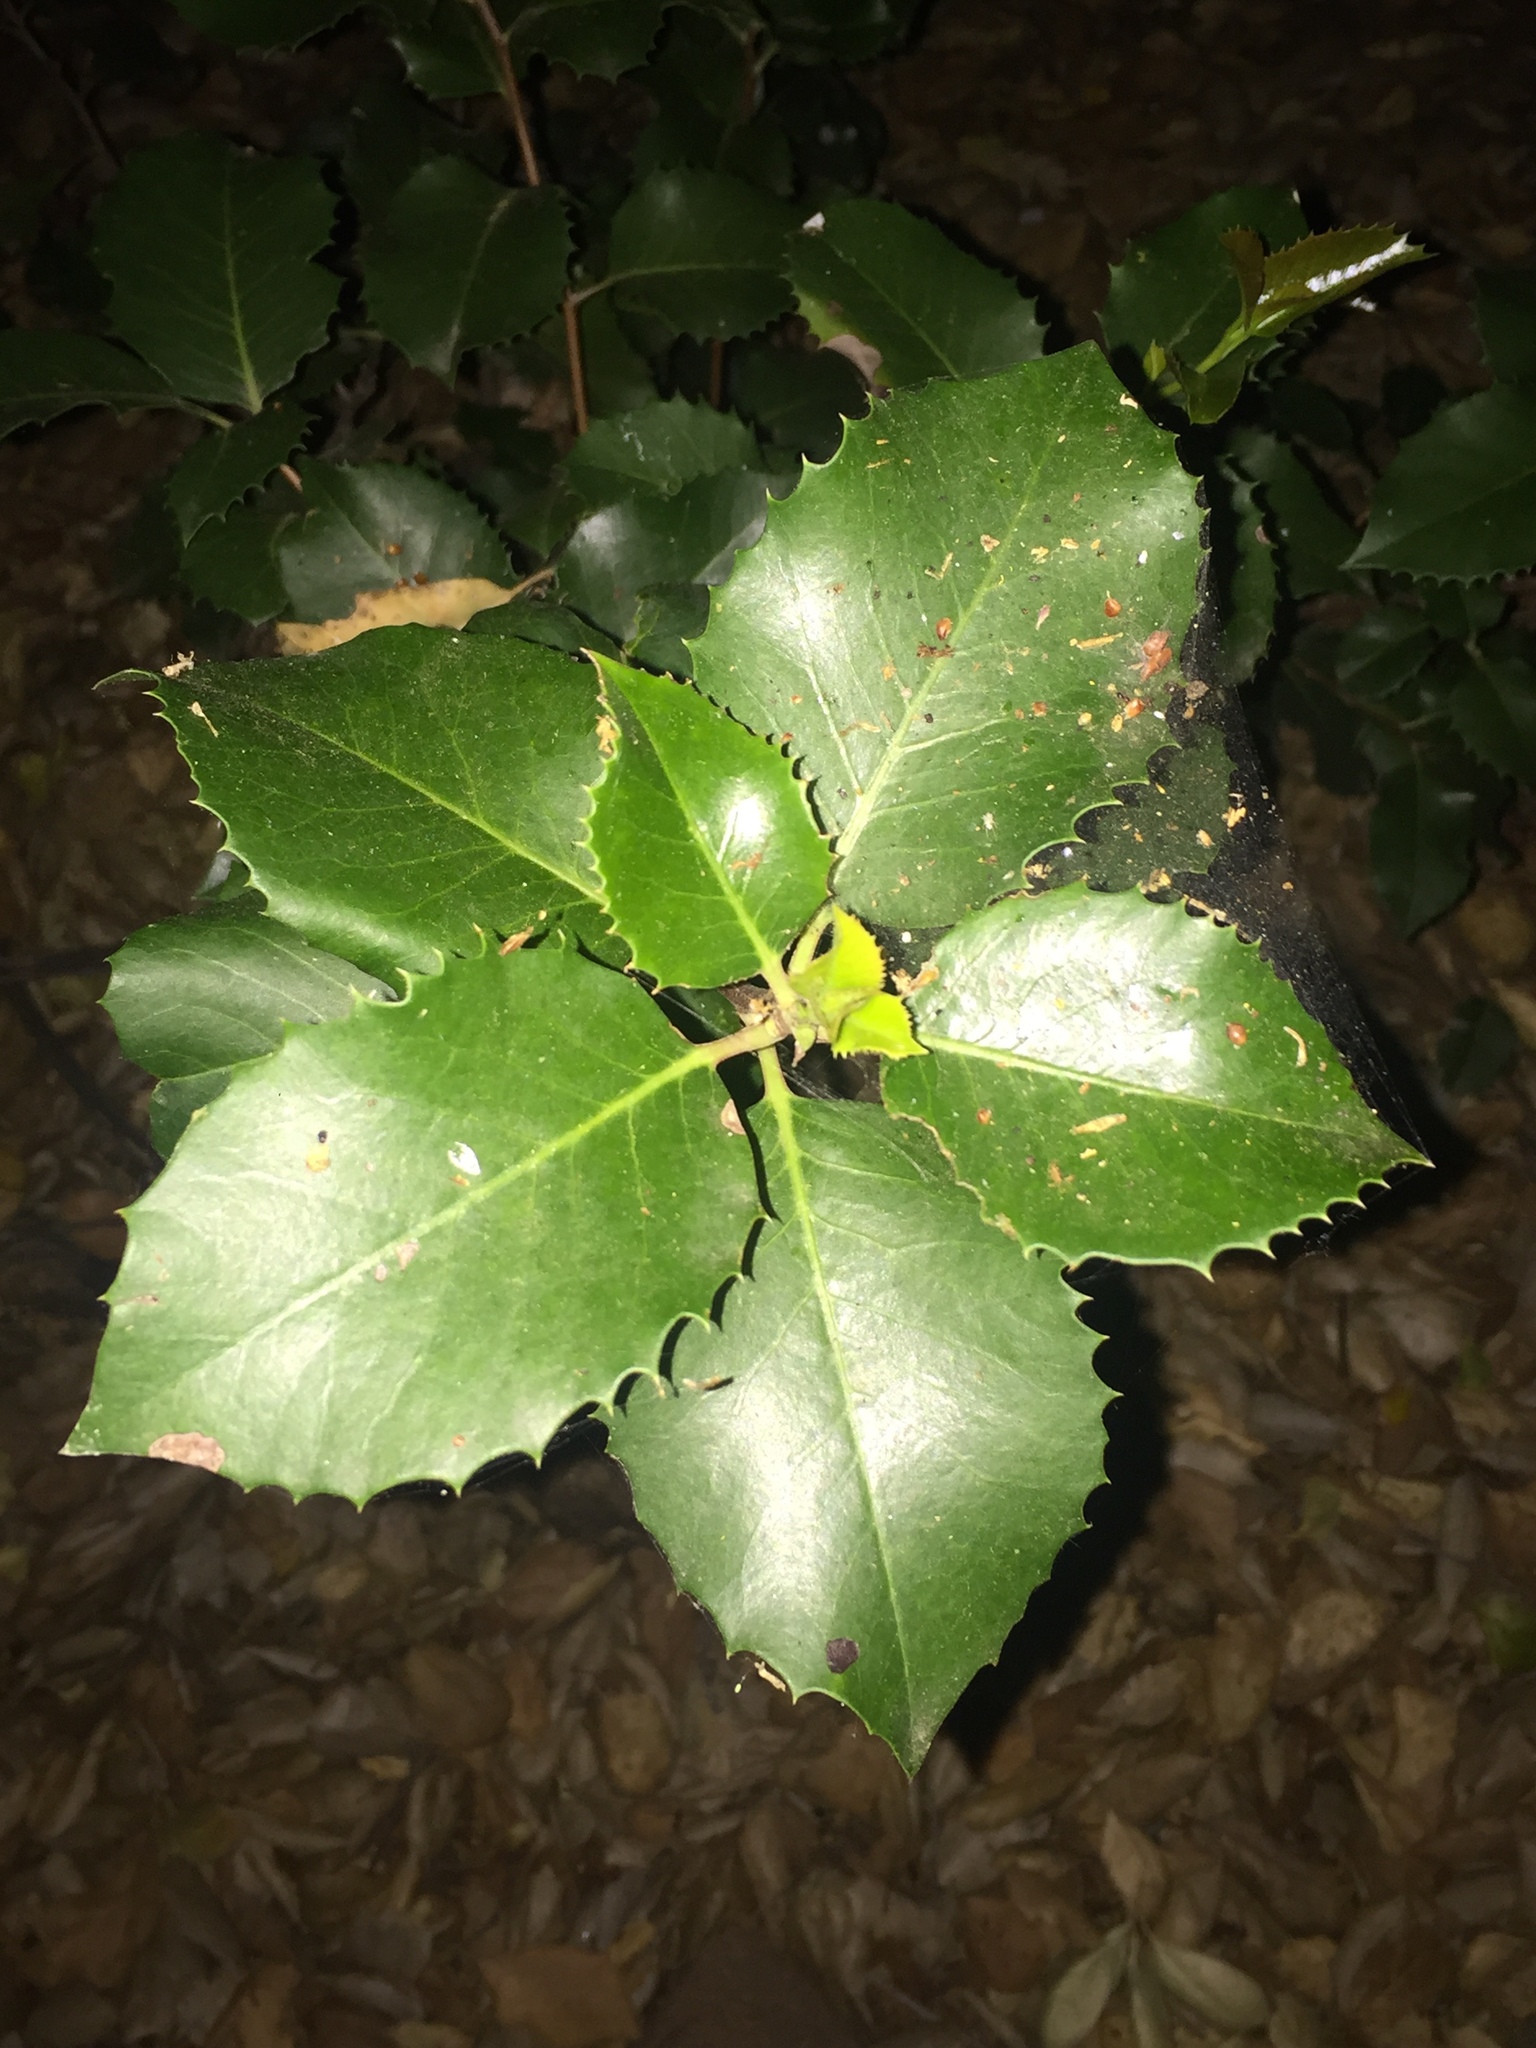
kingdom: Plantae
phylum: Tracheophyta
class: Magnoliopsida
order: Rosales
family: Rosaceae
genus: Prunus
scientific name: Prunus ilicifolia
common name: Hollyleaf cherry
